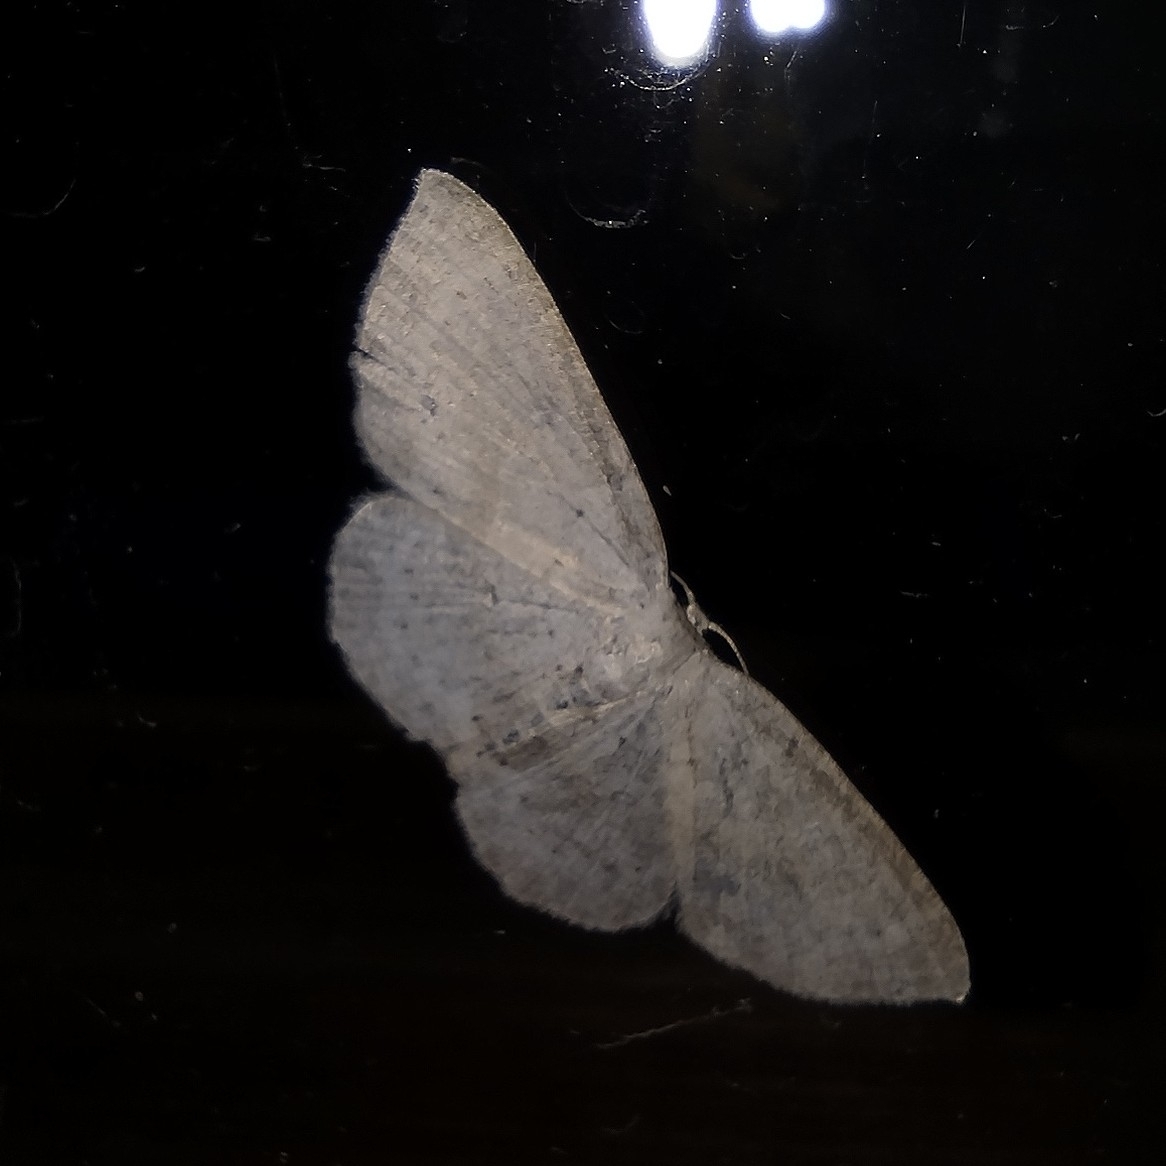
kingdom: Animalia
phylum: Arthropoda
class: Insecta
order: Lepidoptera
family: Geometridae
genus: Cyclophora
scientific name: Cyclophora albipunctata
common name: Birch mocha
